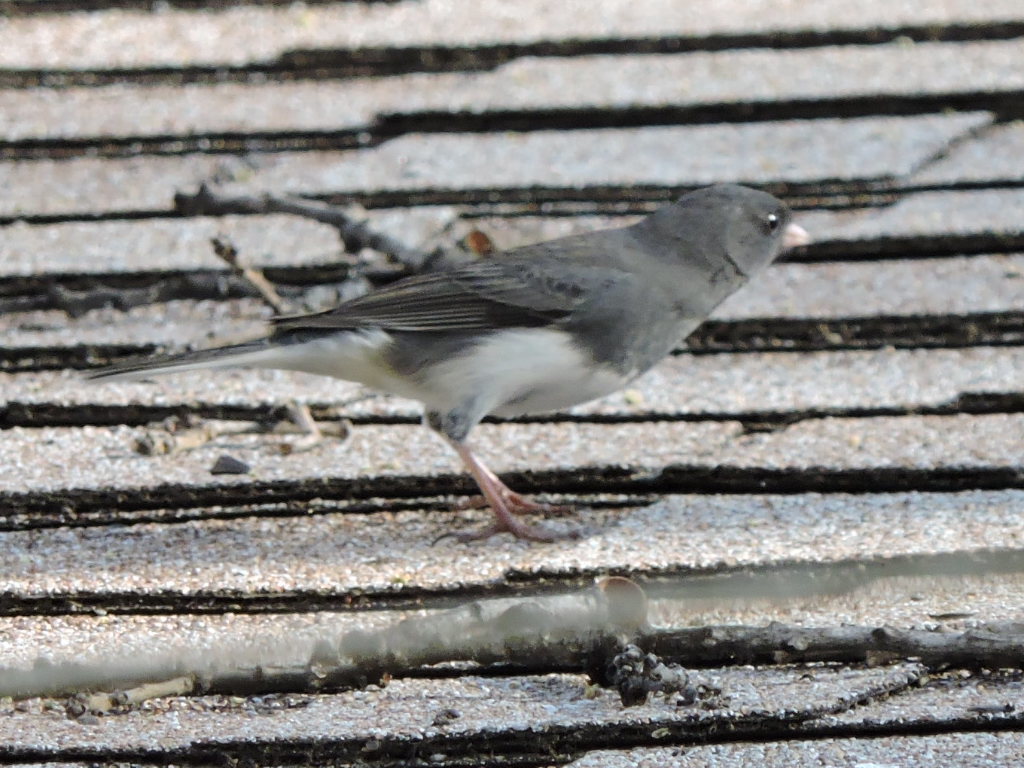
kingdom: Animalia
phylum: Chordata
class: Aves
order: Passeriformes
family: Passerellidae
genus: Junco
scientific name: Junco hyemalis
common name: Dark-eyed junco
